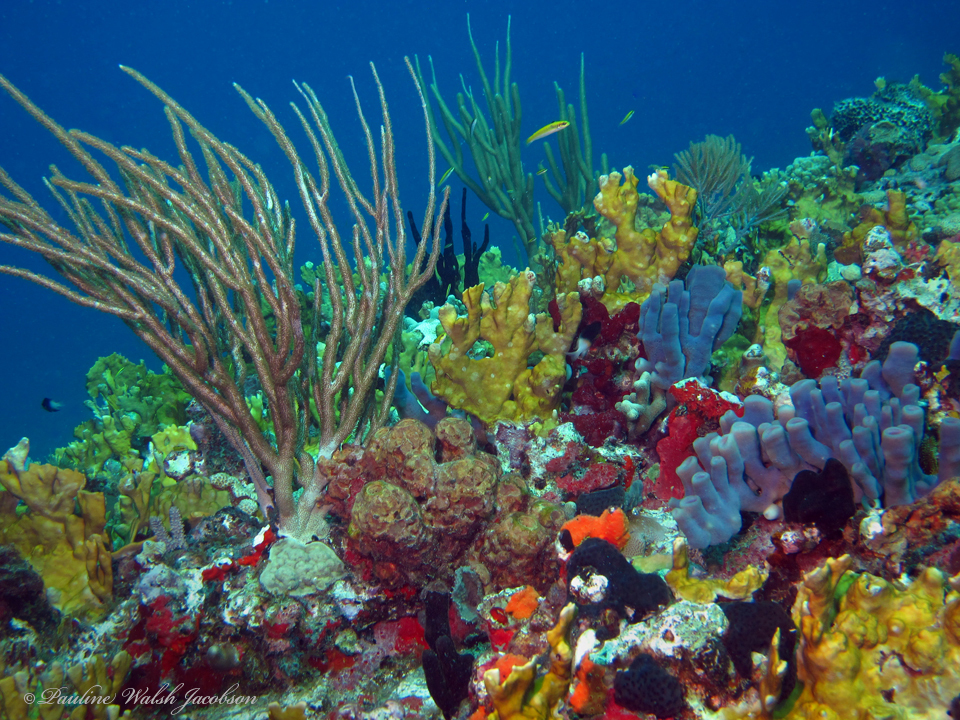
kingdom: Animalia
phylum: Porifera
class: Demospongiae
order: Haplosclerida
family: Callyspongiidae
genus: Callyspongia
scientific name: Callyspongia fallax
